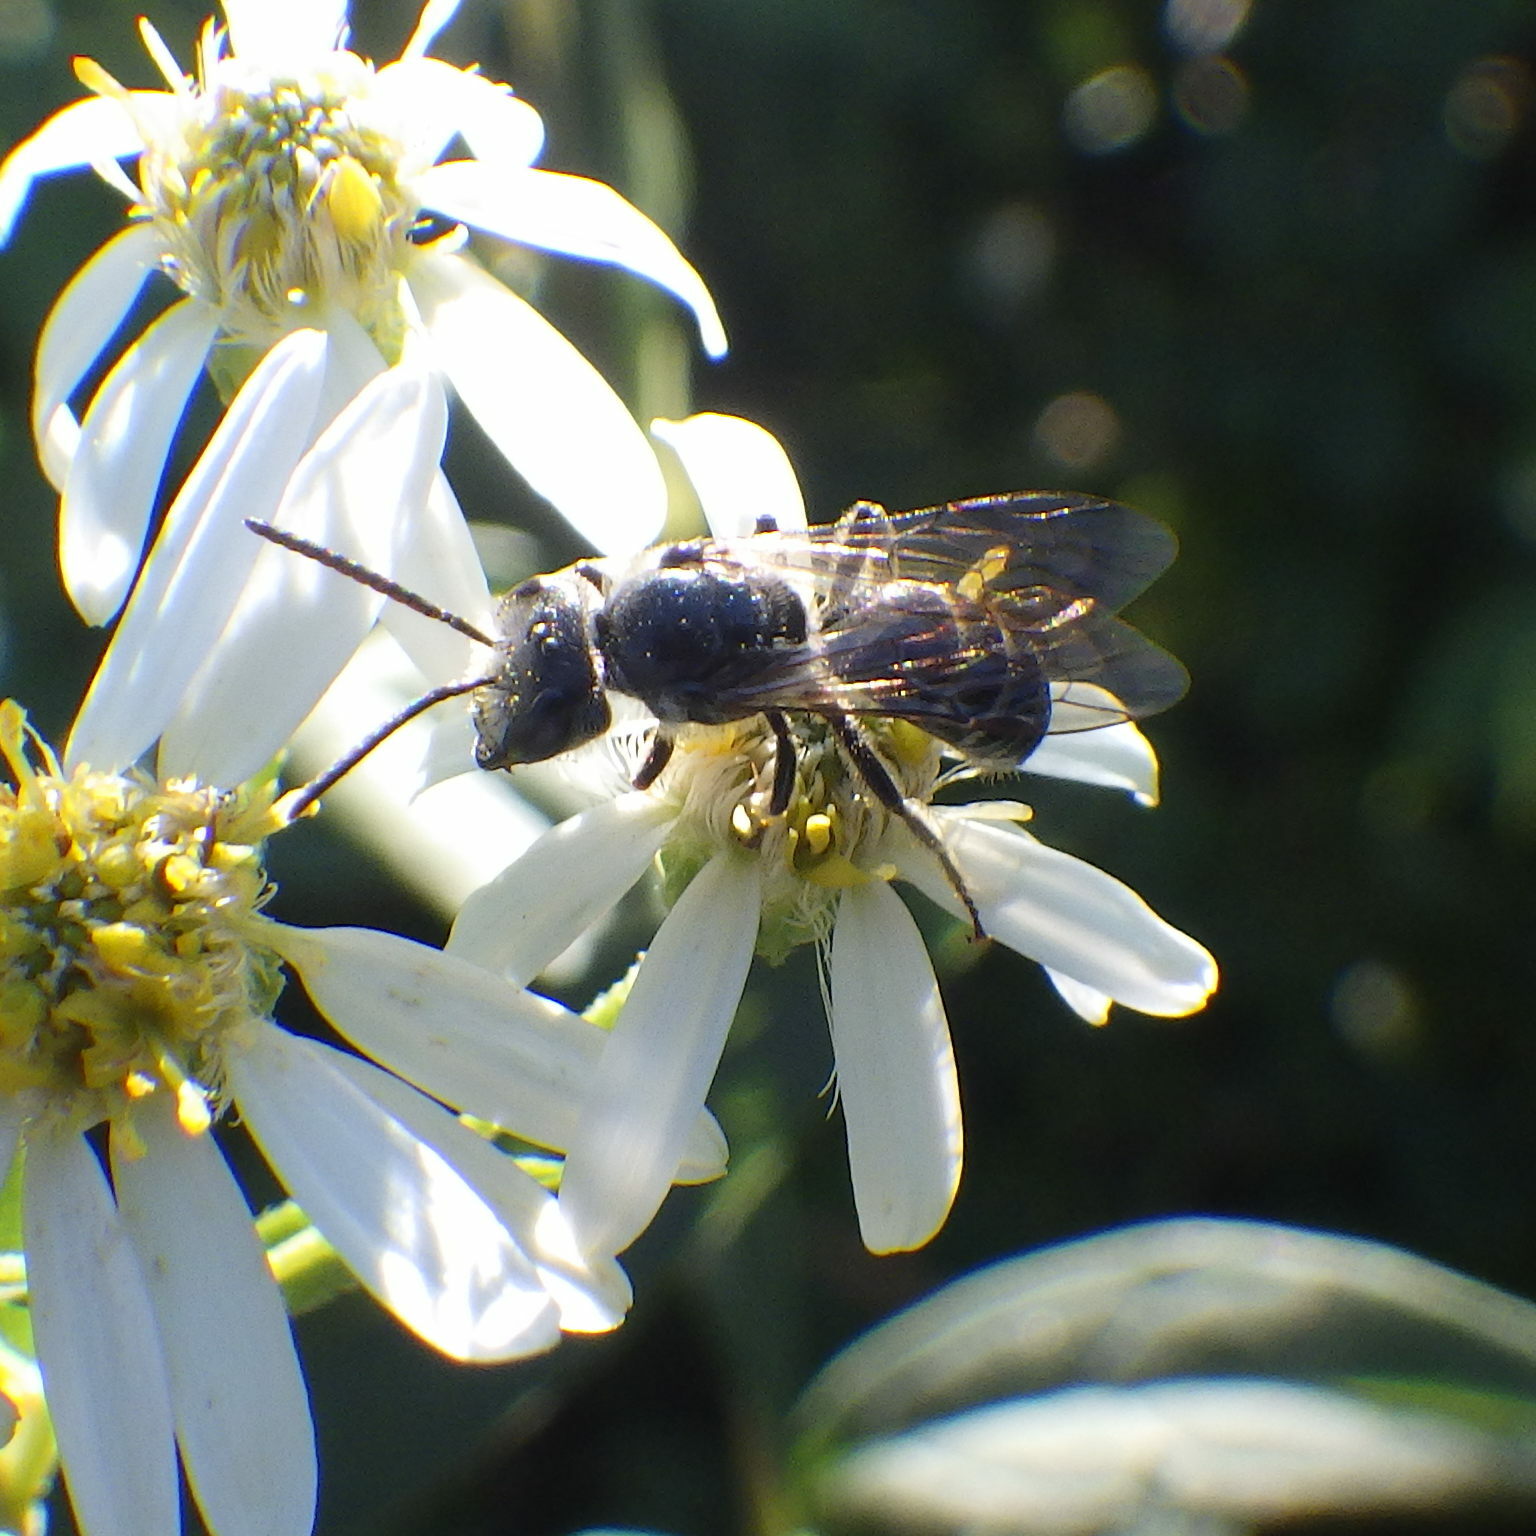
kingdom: Animalia
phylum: Arthropoda
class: Insecta
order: Hymenoptera
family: Halictidae
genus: Lasioglossum
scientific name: Lasioglossum coriaceum
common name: Leathery sweat bee
